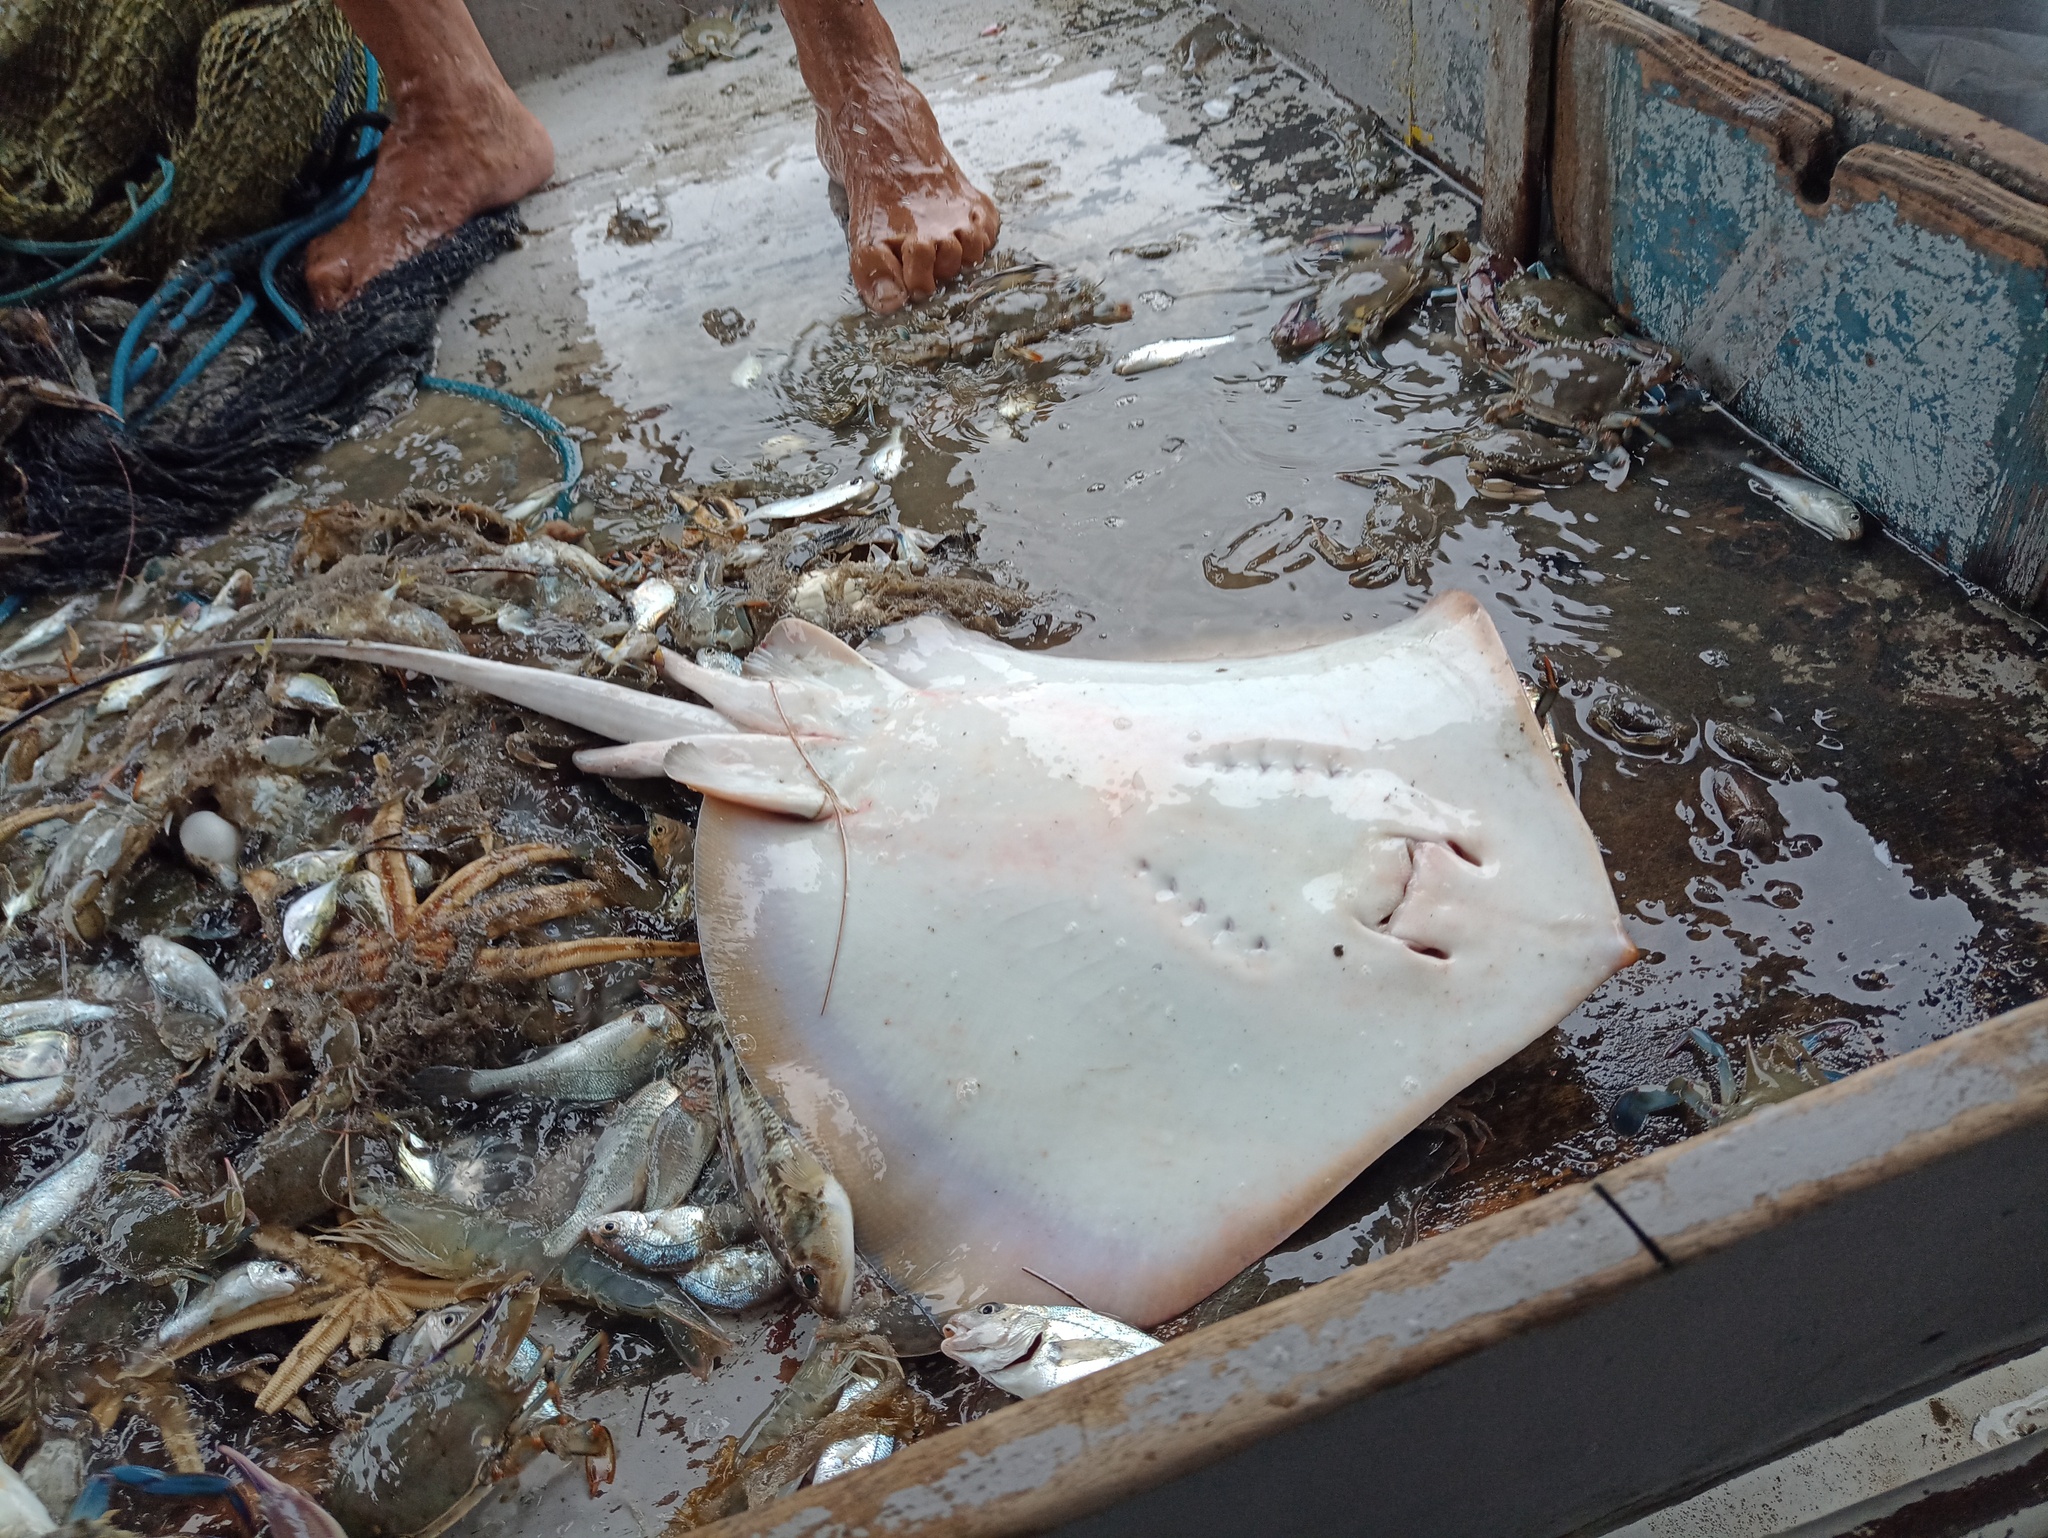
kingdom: Animalia
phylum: Chordata
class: Elasmobranchii
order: Myliobatiformes
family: Dasyatidae
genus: Dasyatis
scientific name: Dasyatis hypostigma
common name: Groovebelly stingray
